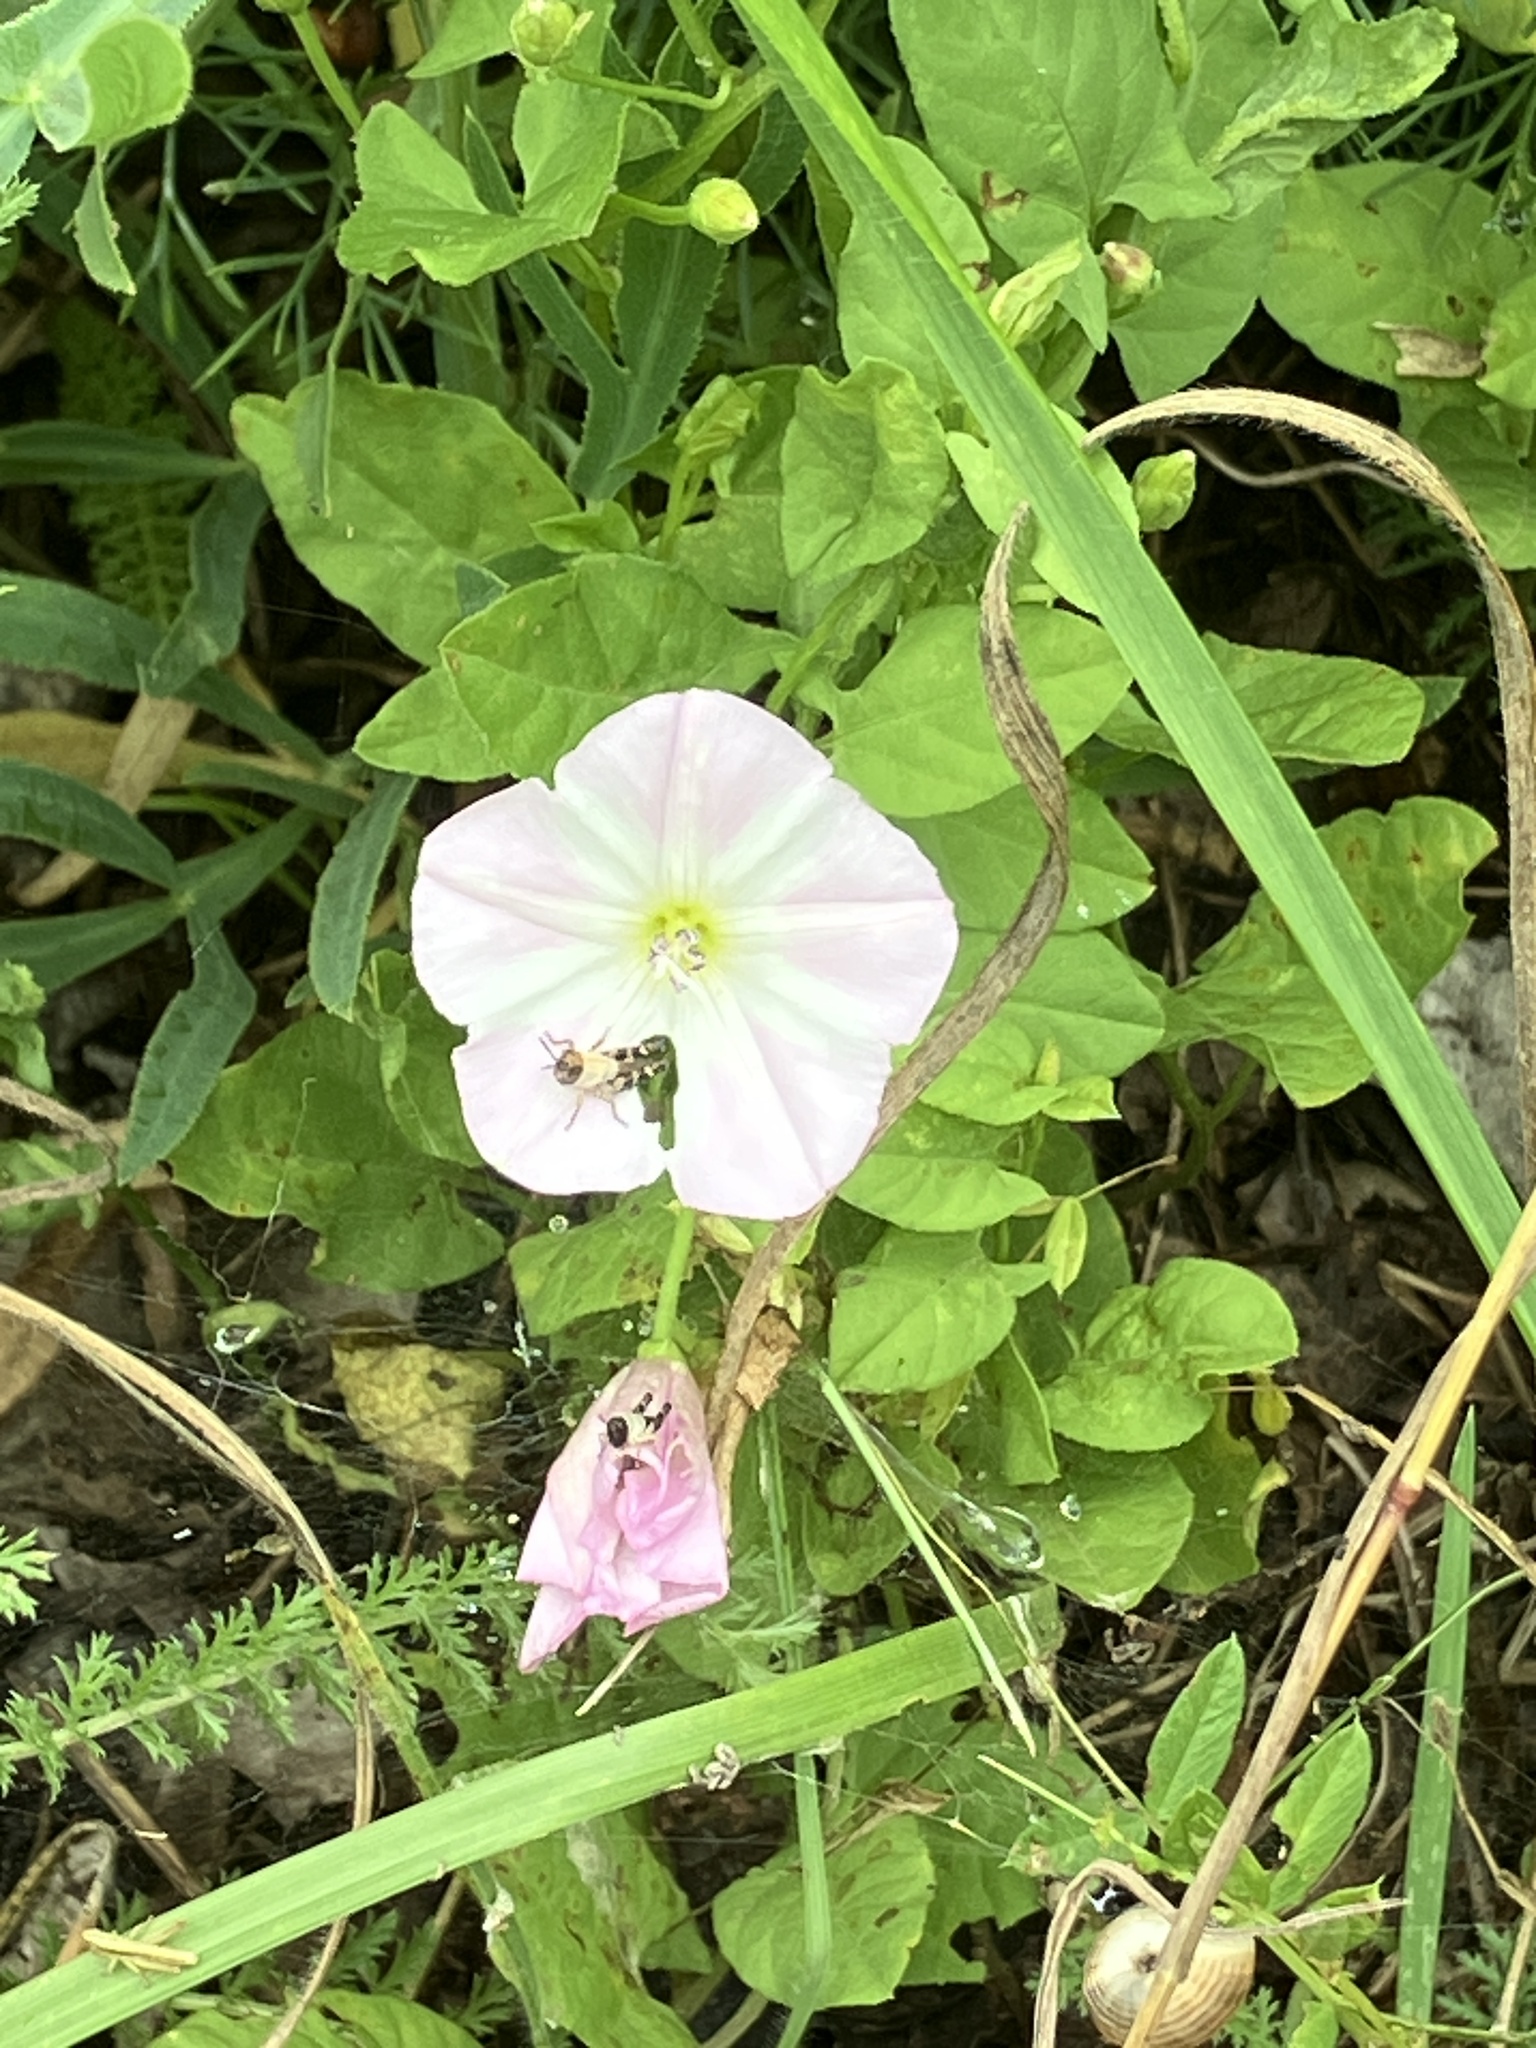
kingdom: Plantae
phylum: Tracheophyta
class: Magnoliopsida
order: Solanales
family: Convolvulaceae
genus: Convolvulus
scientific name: Convolvulus arvensis
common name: Field bindweed
